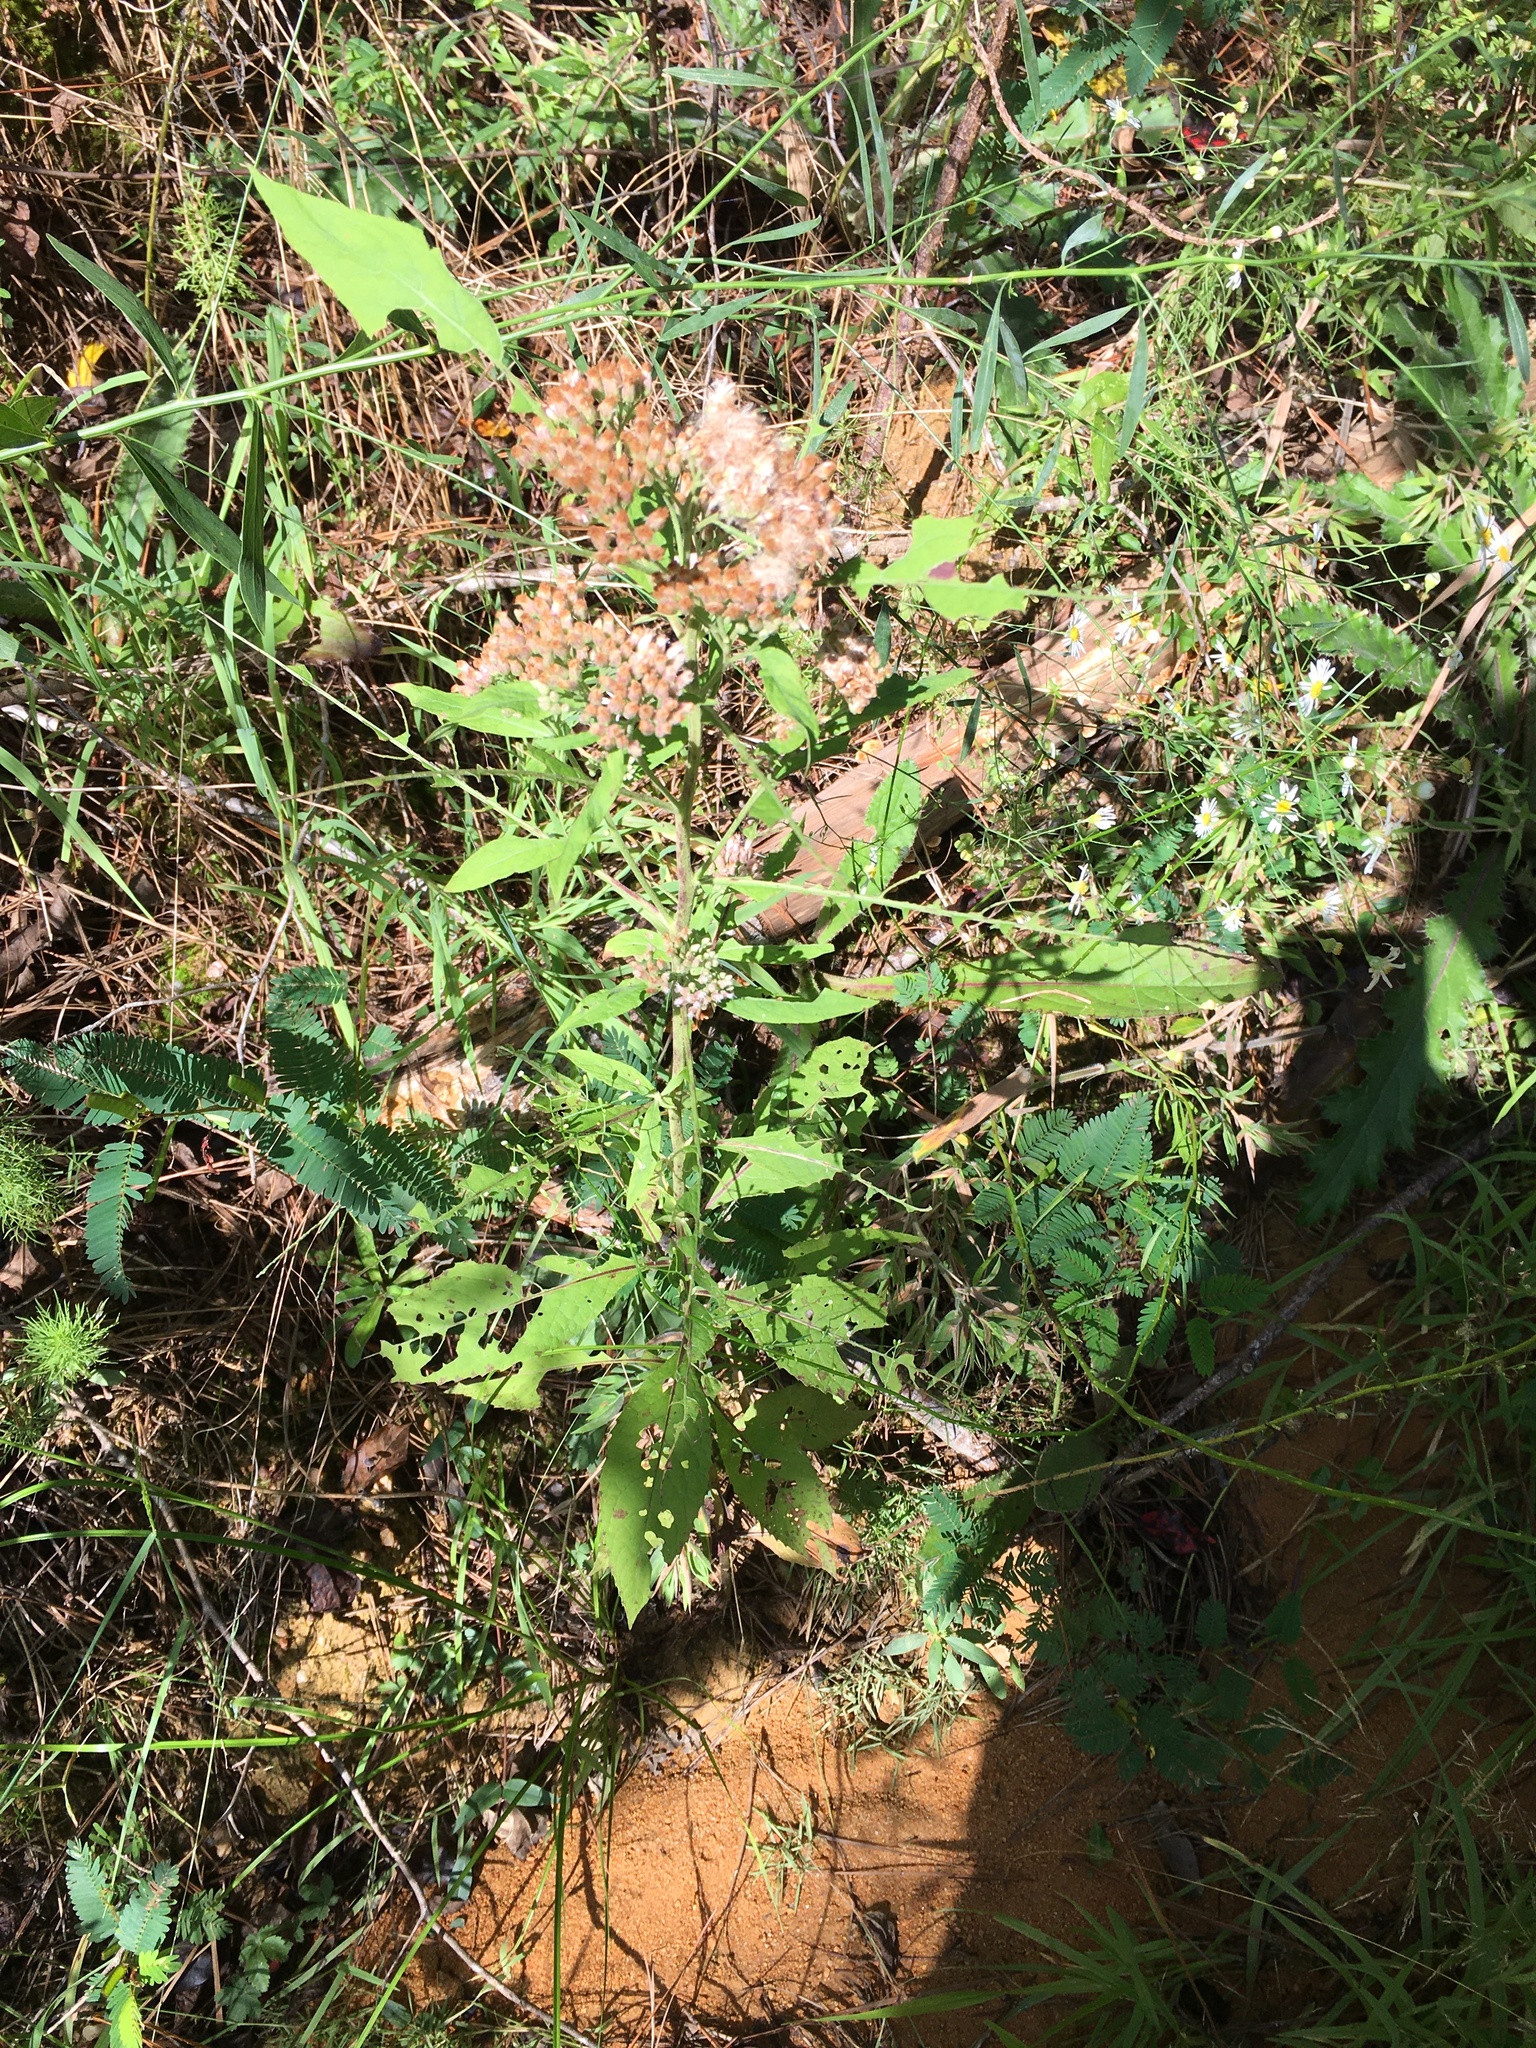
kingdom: Plantae
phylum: Tracheophyta
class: Magnoliopsida
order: Asterales
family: Asteraceae
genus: Pluchea
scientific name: Pluchea camphorata
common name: Camphor pluchea
